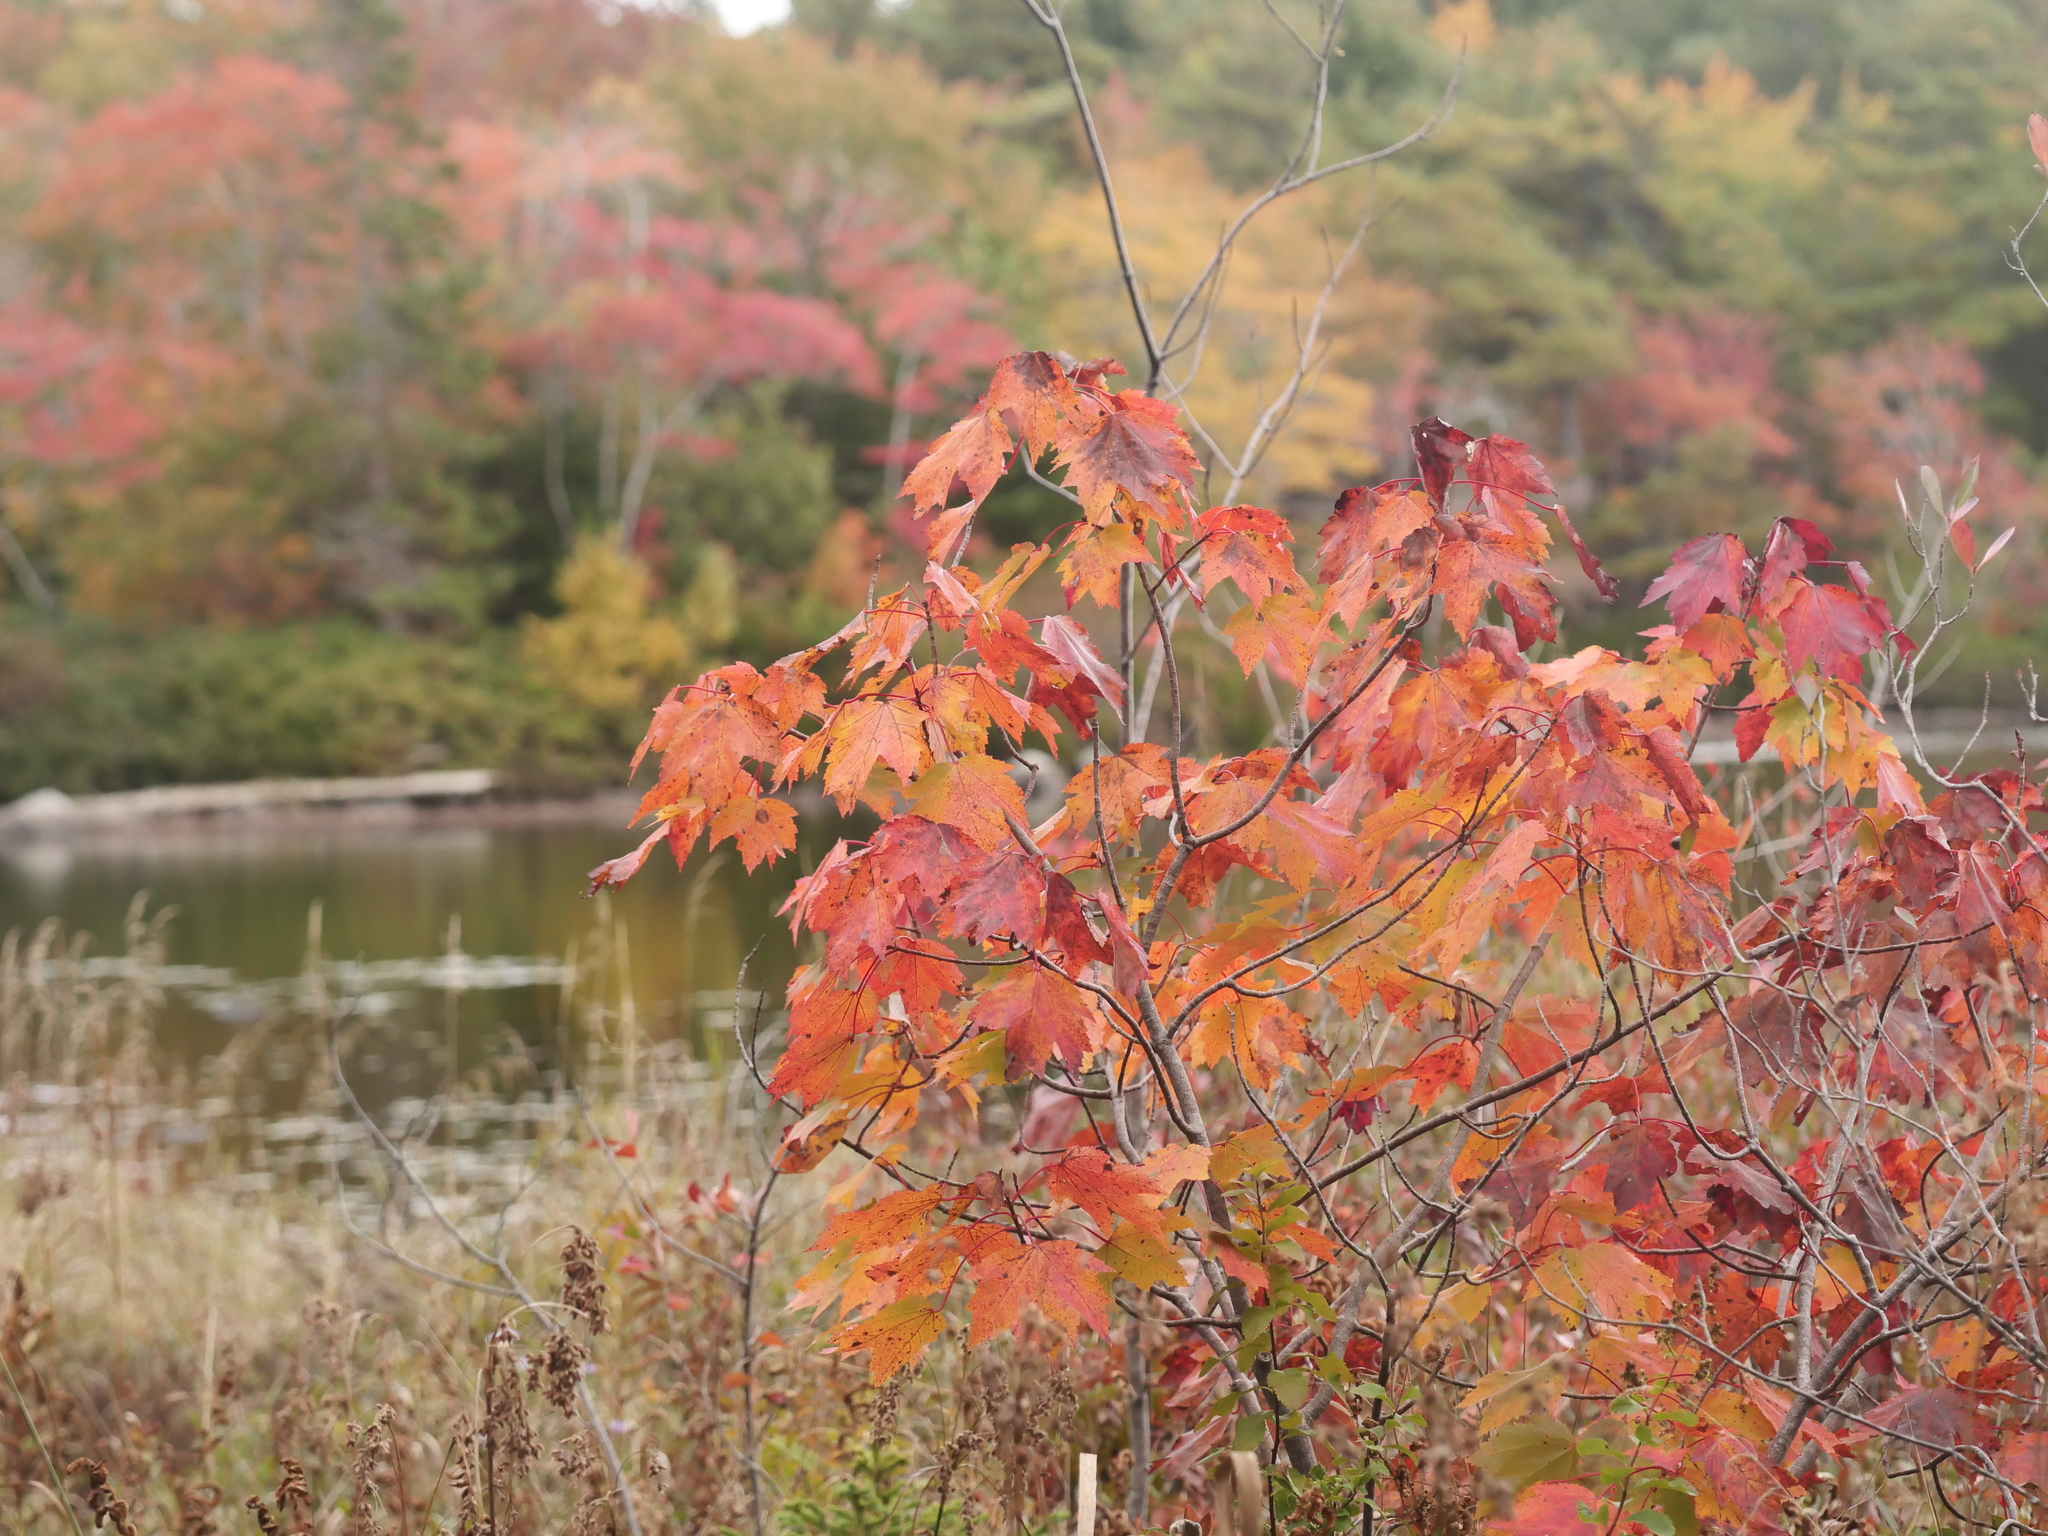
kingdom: Plantae
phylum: Tracheophyta
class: Magnoliopsida
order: Sapindales
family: Sapindaceae
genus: Acer
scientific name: Acer rubrum
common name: Red maple
